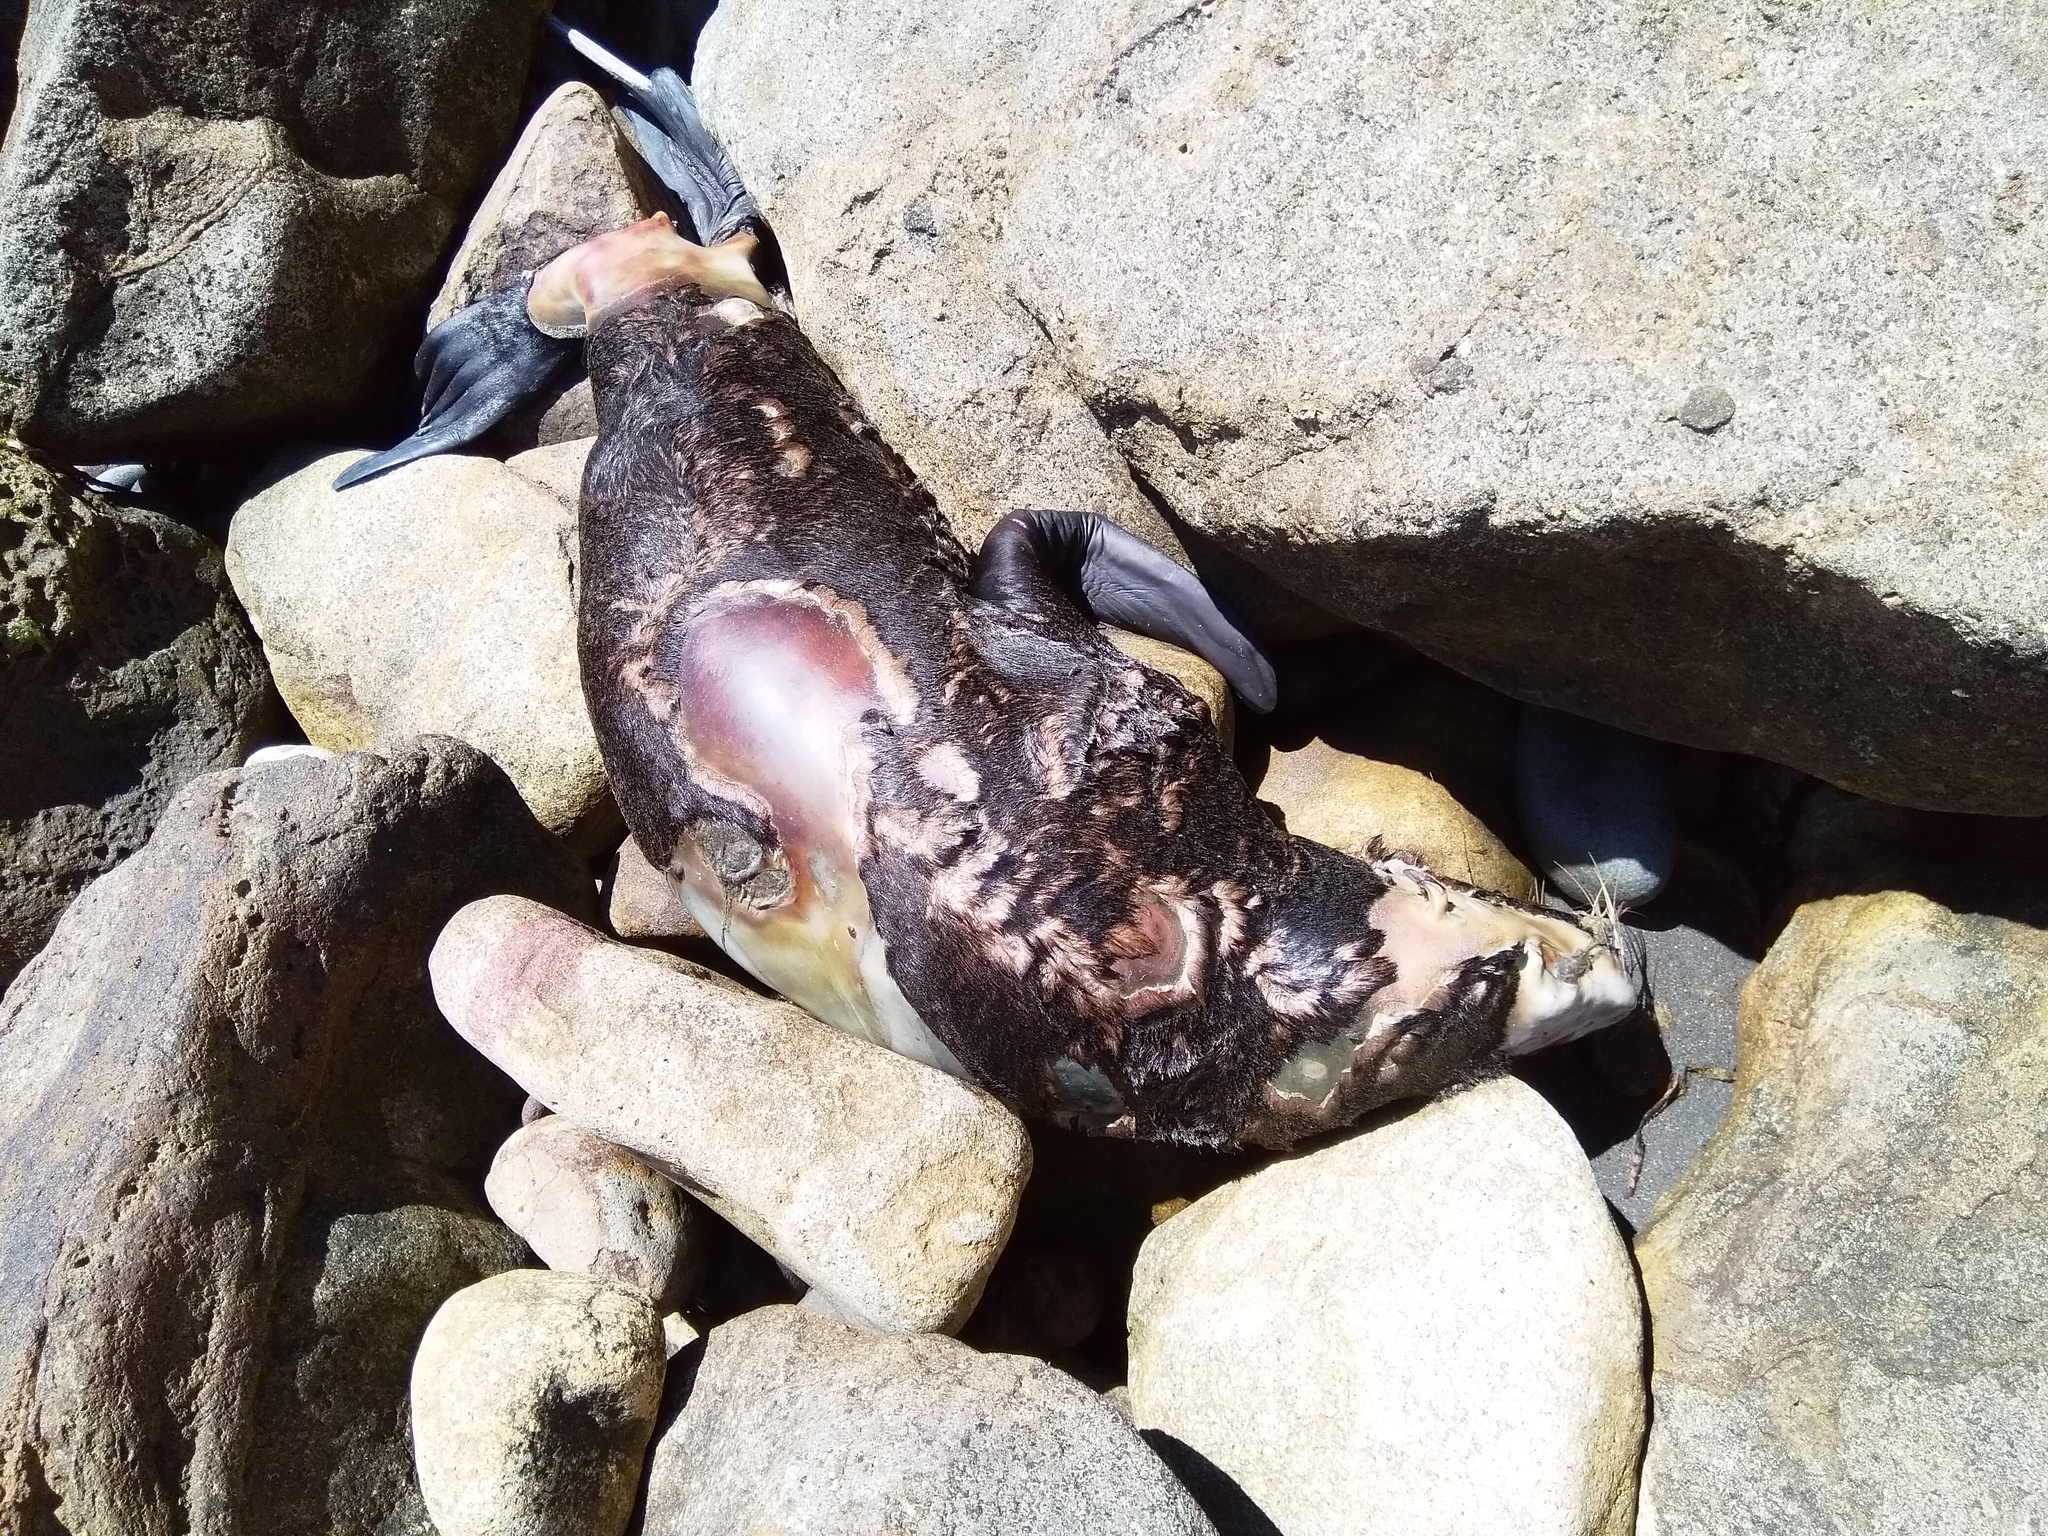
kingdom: Animalia
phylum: Chordata
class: Mammalia
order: Carnivora
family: Otariidae
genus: Arctocephalus
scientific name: Arctocephalus forsteri
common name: New zealand fur seal
